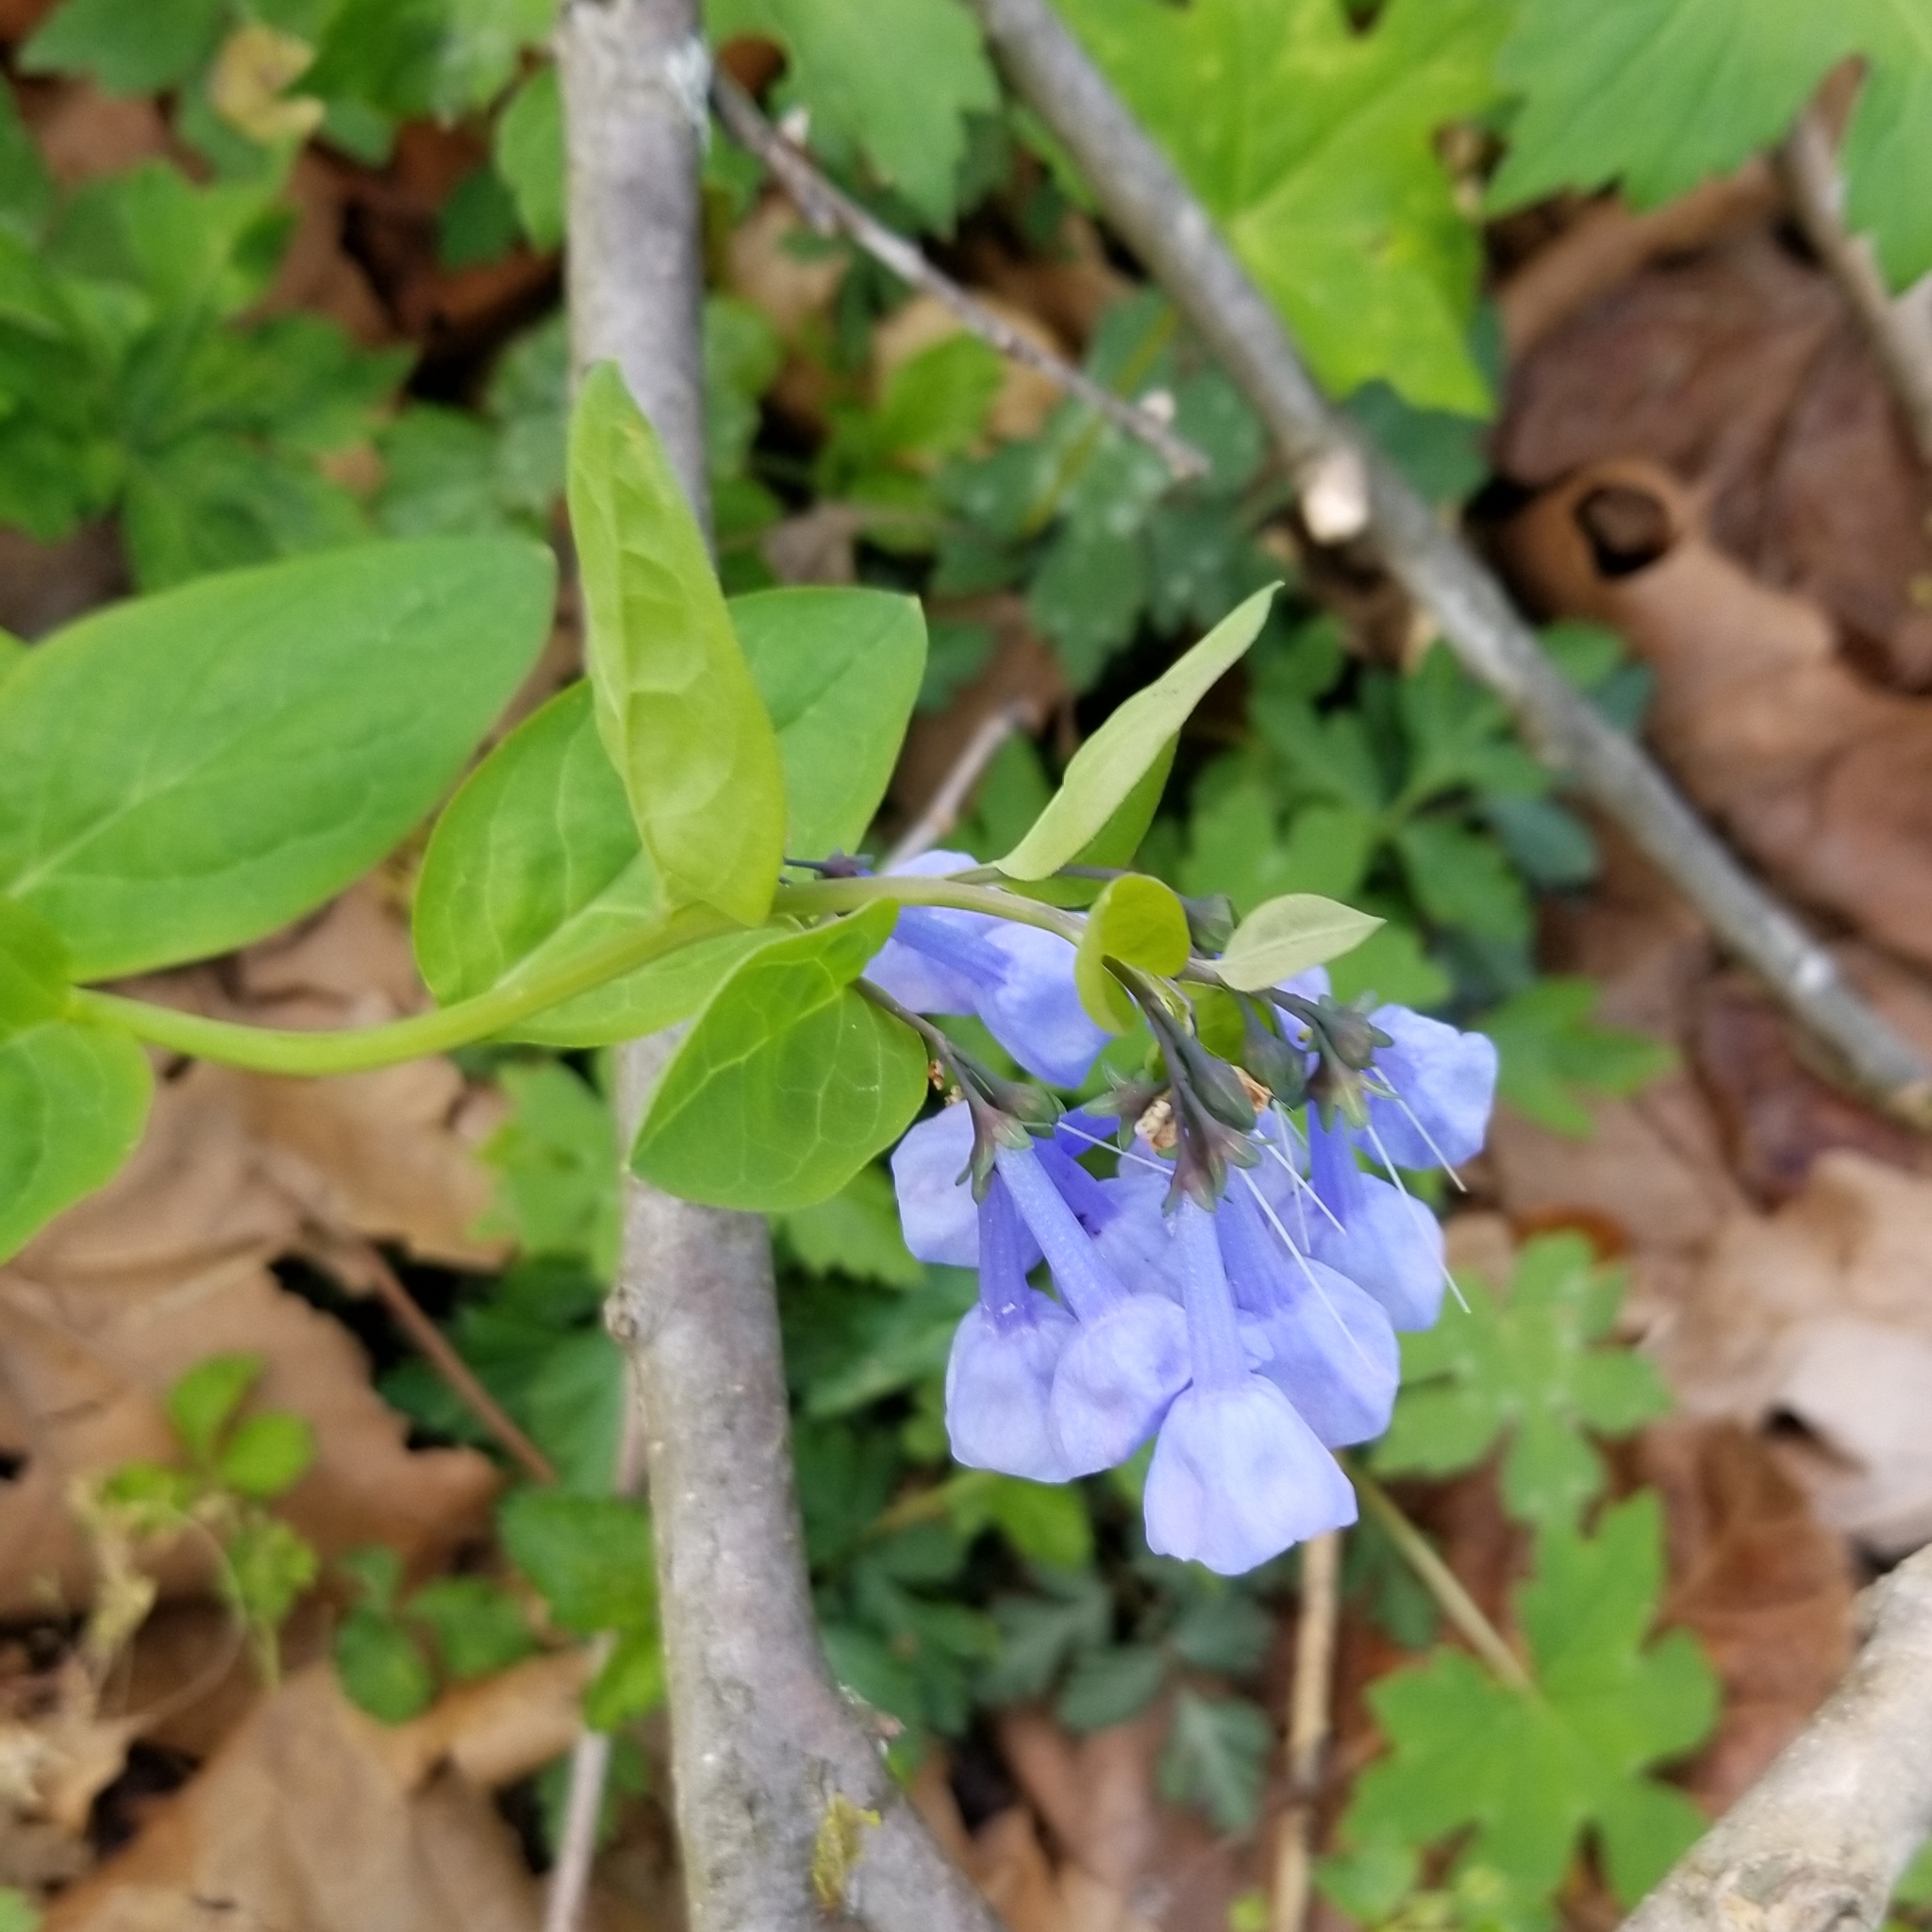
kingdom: Plantae
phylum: Tracheophyta
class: Magnoliopsida
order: Boraginales
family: Boraginaceae
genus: Mertensia
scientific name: Mertensia virginica
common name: Virginia bluebells
